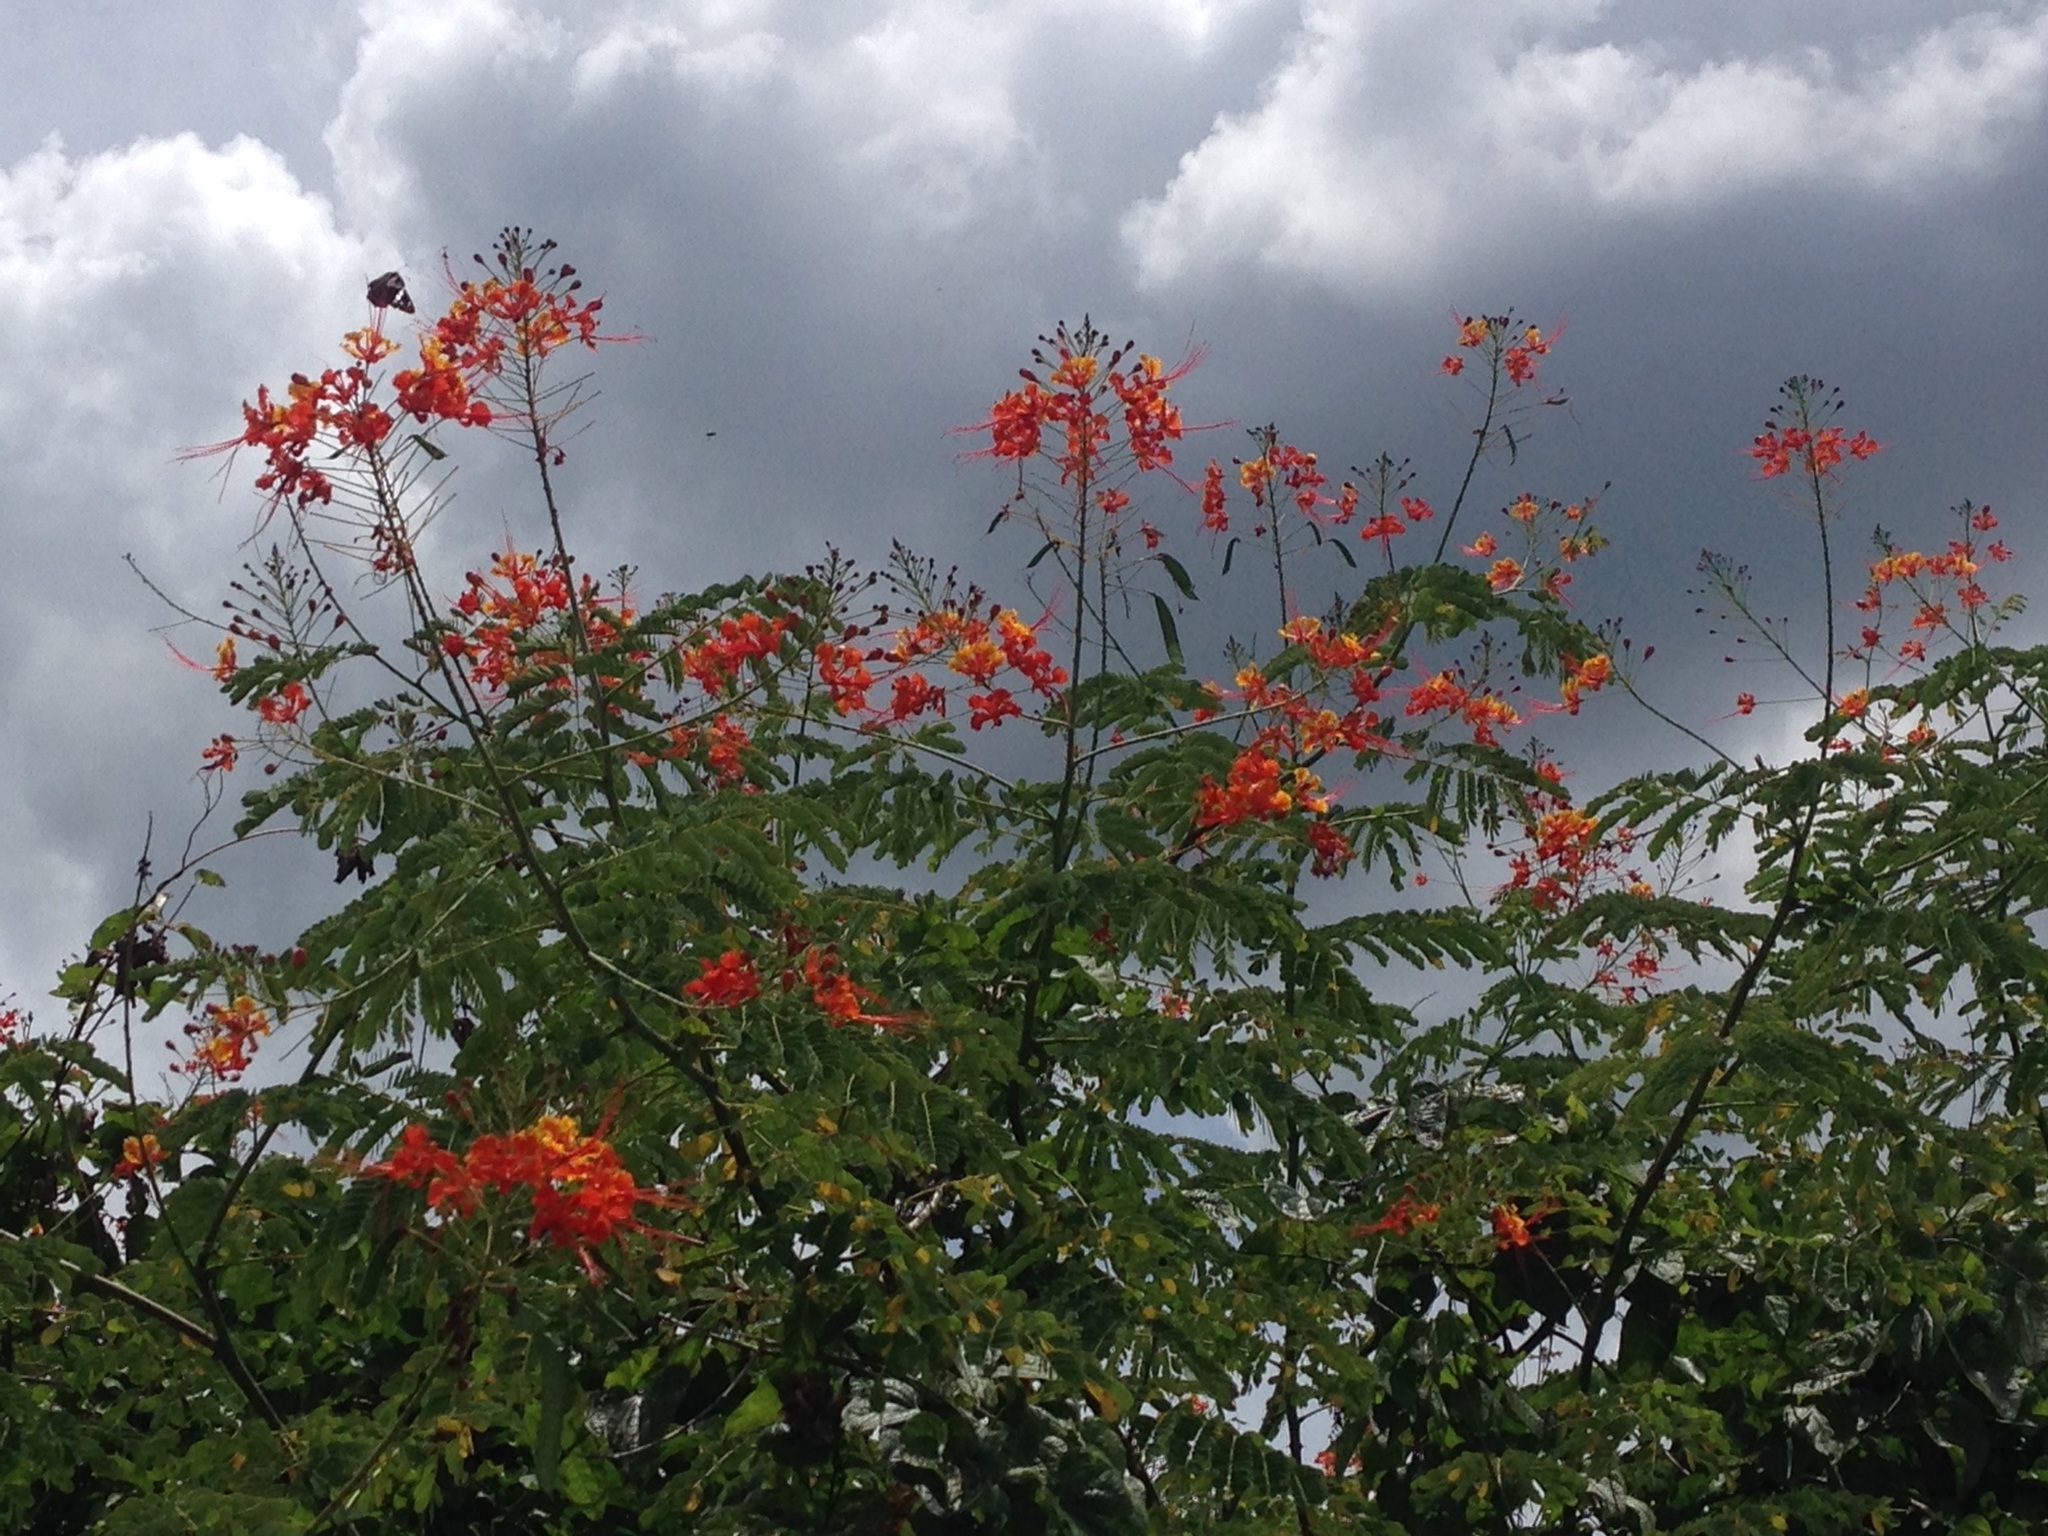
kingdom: Plantae
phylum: Tracheophyta
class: Magnoliopsida
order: Fabales
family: Fabaceae
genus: Caesalpinia
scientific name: Caesalpinia pulcherrima
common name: Pride-of-barbados
